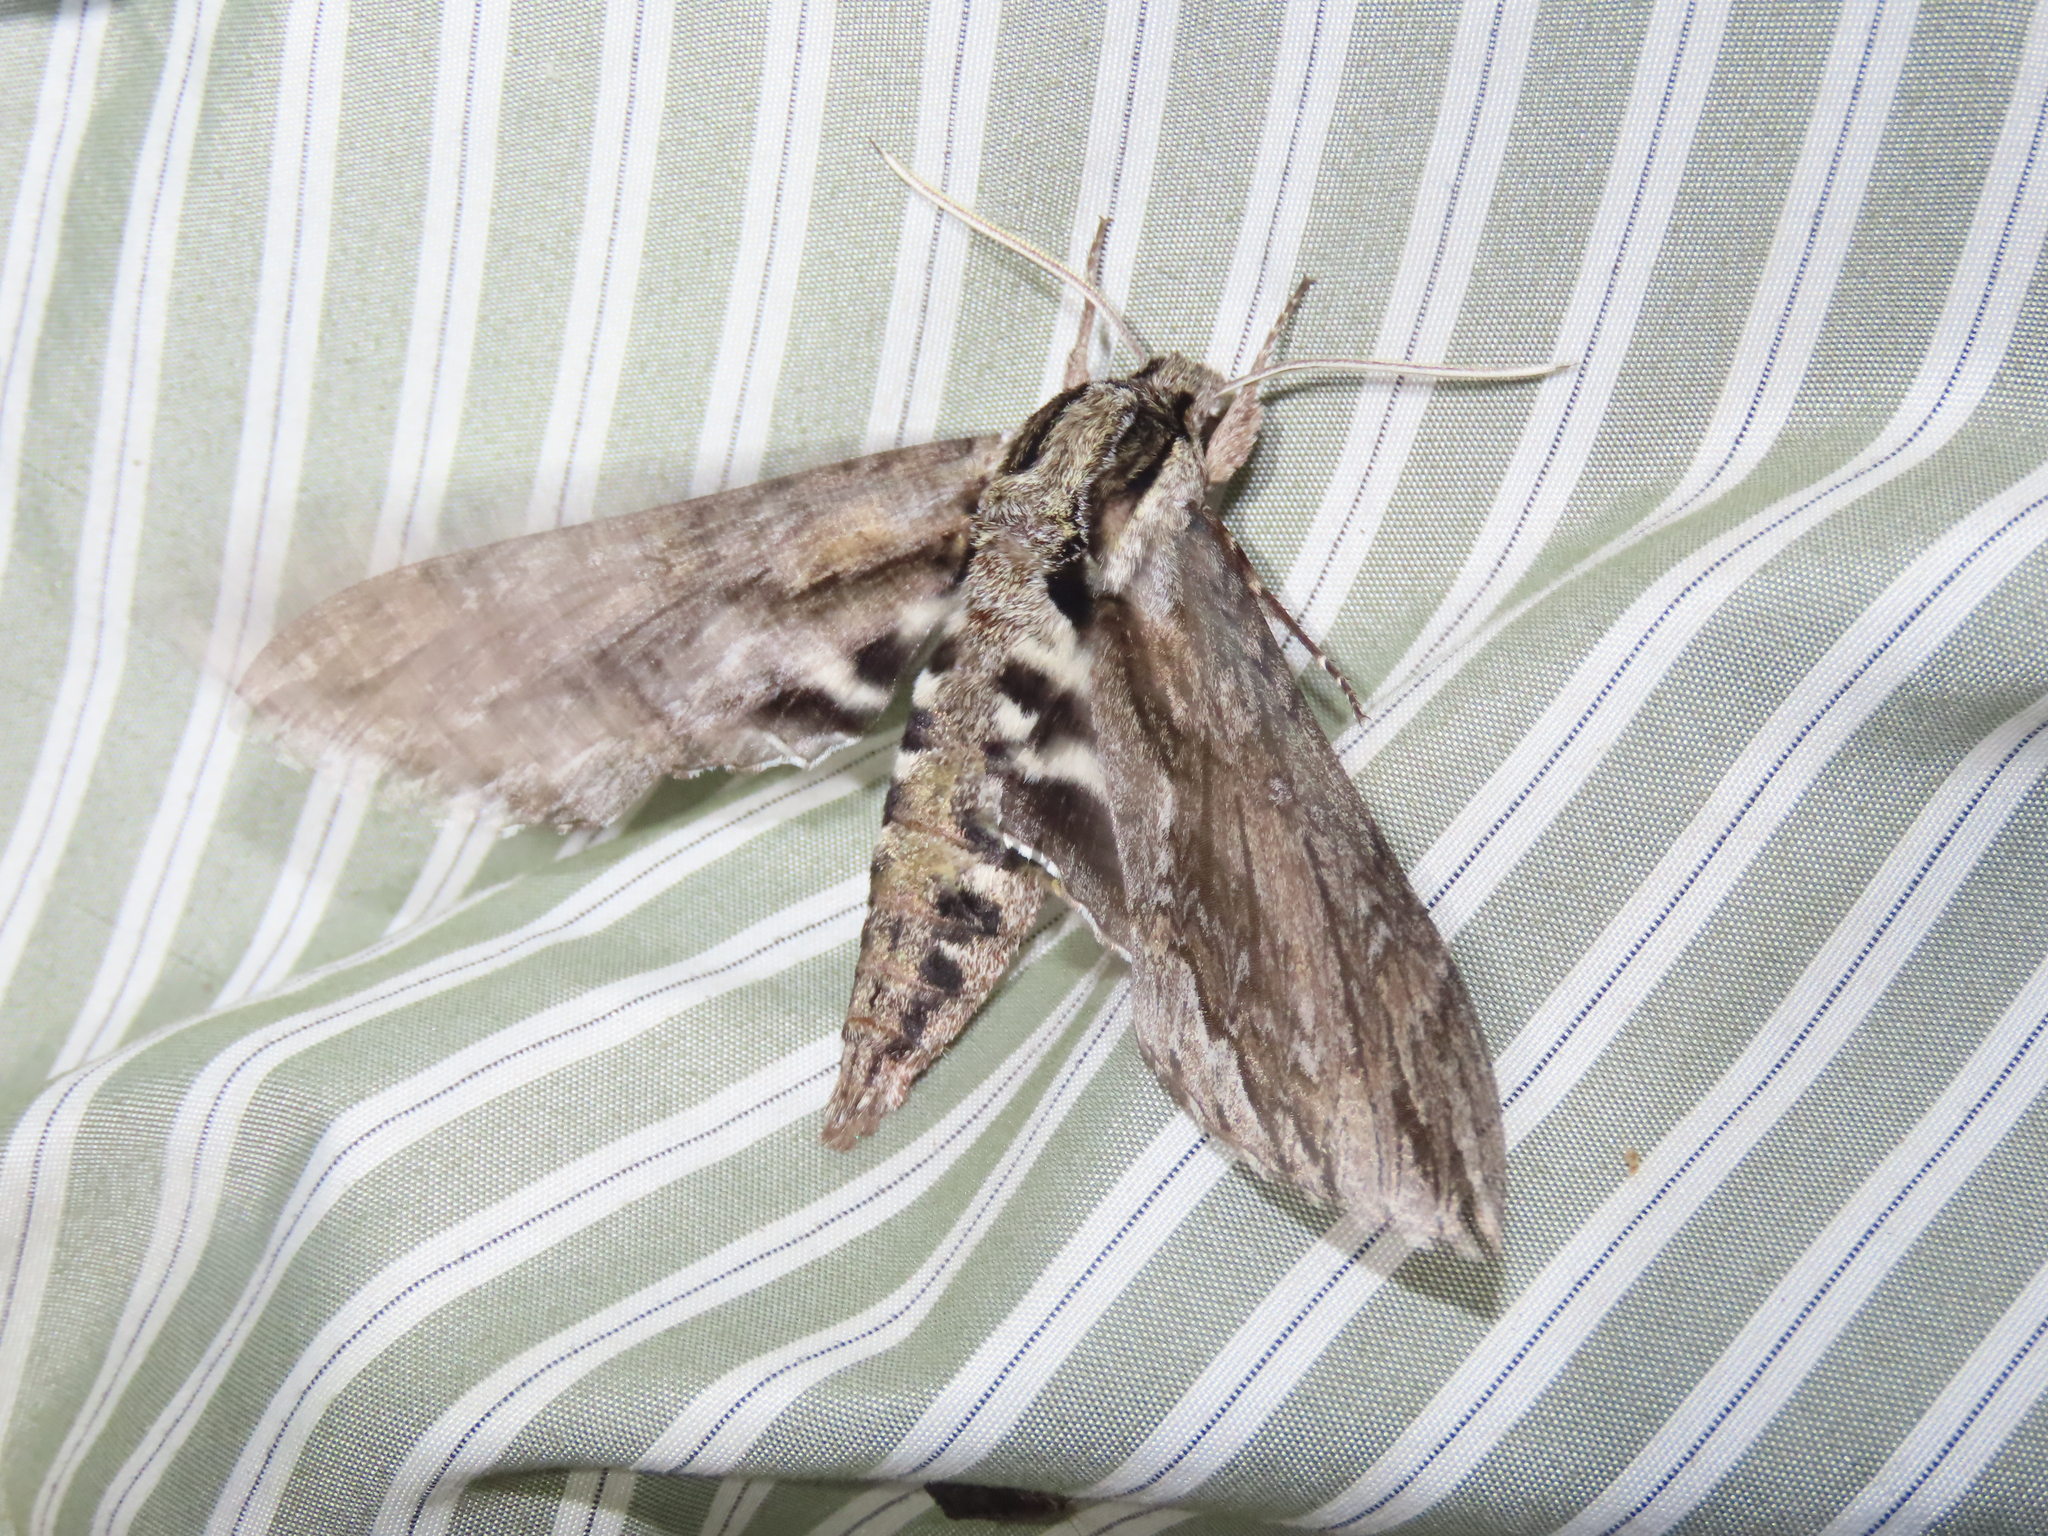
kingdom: Animalia
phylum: Arthropoda
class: Insecta
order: Lepidoptera
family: Sphingidae
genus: Lintneria
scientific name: Lintneria istar
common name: Istar sphinx
